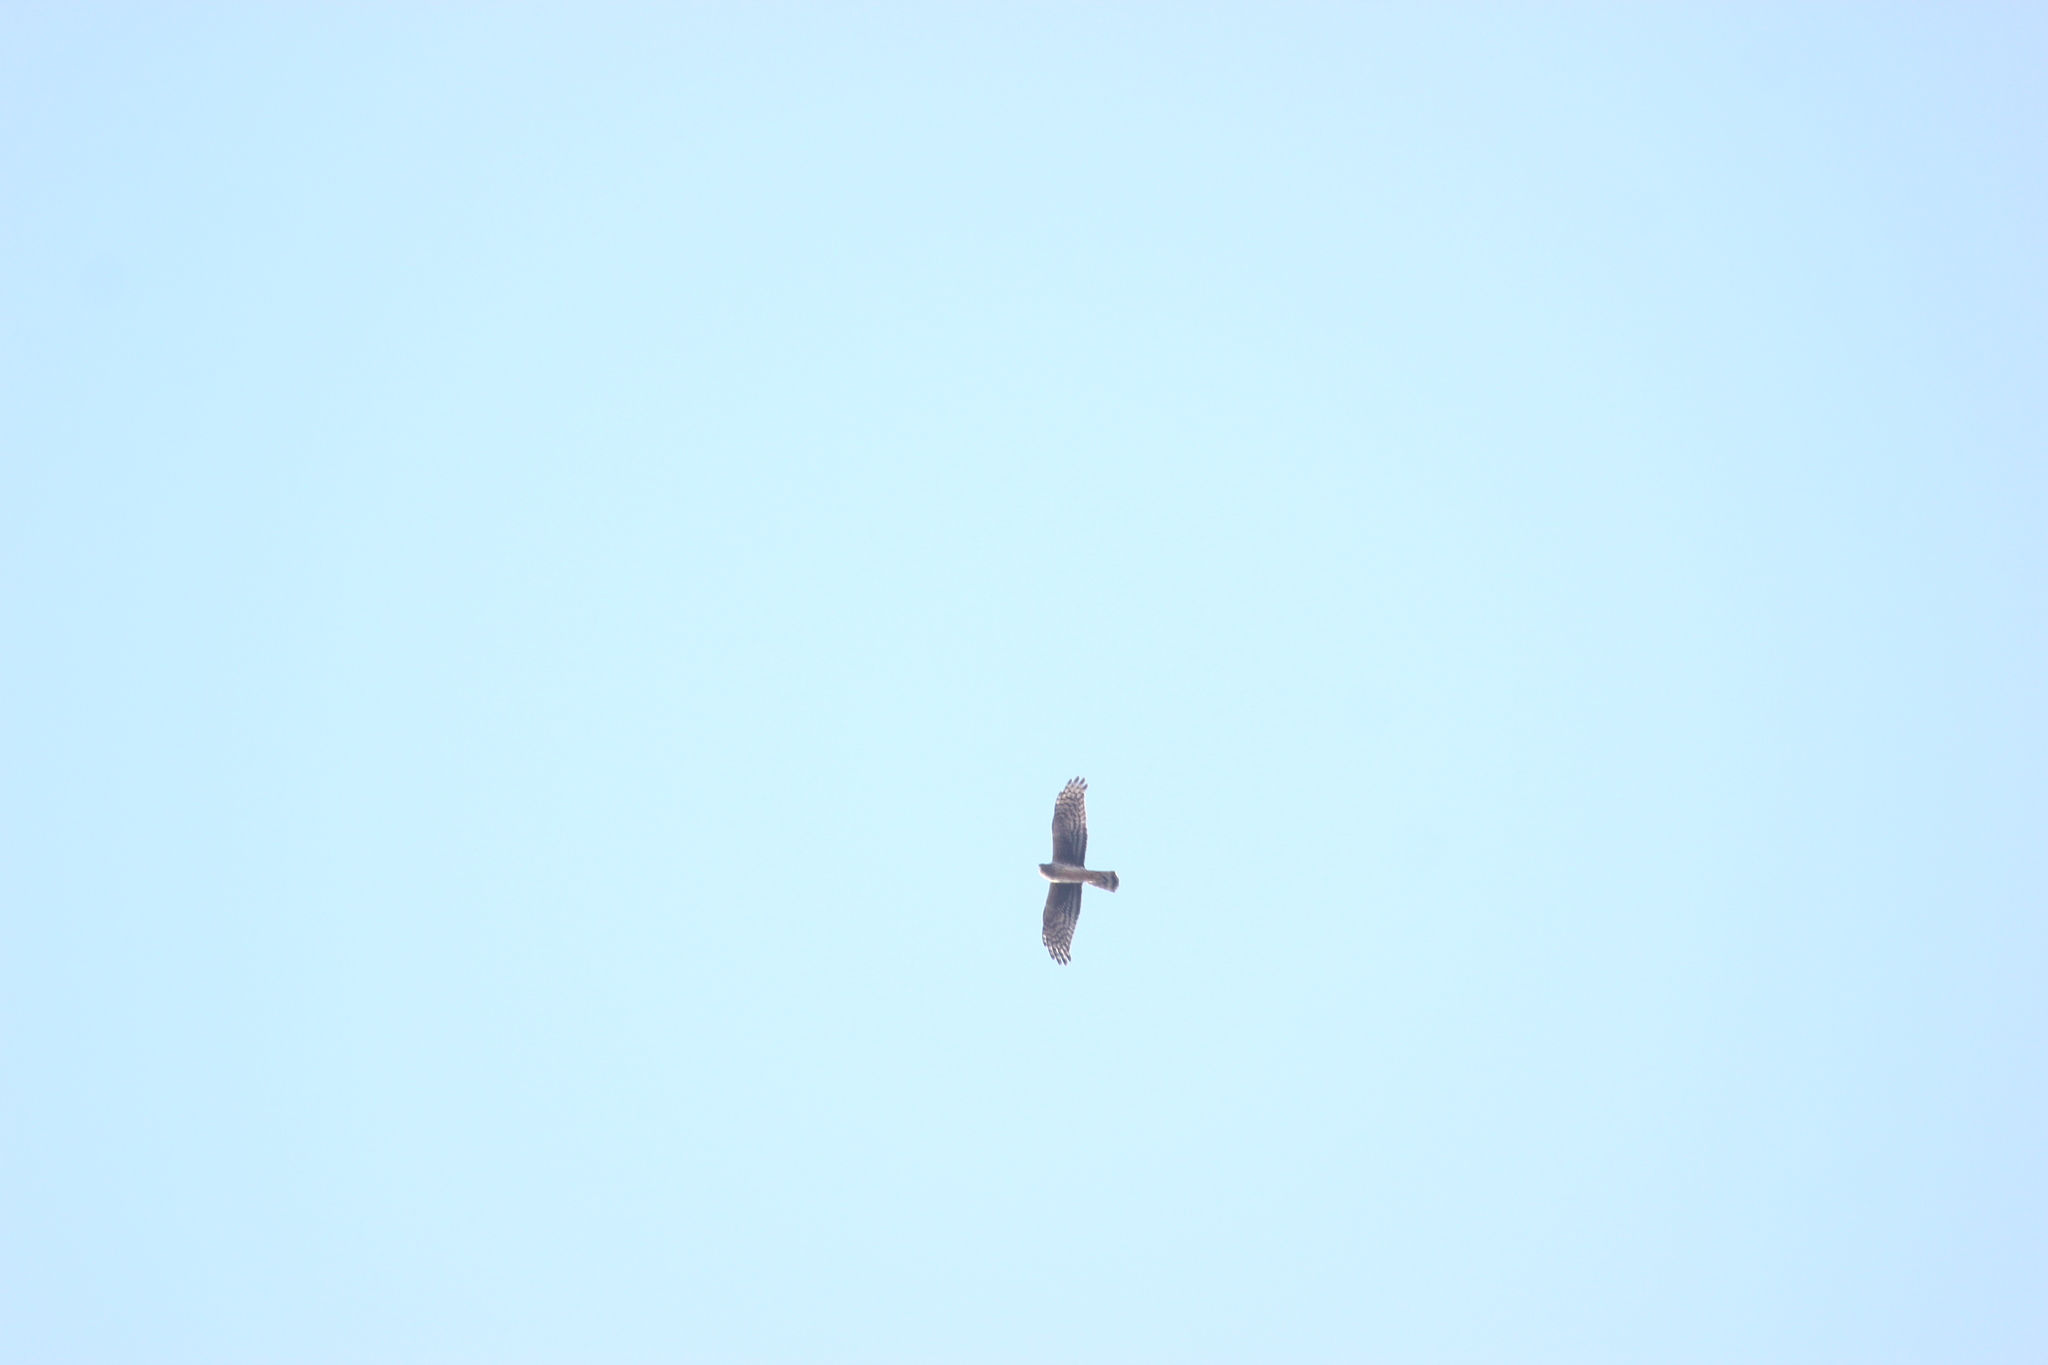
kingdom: Animalia
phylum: Chordata
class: Aves
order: Accipitriformes
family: Accipitridae
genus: Circus
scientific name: Circus cyaneus
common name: Hen harrier
